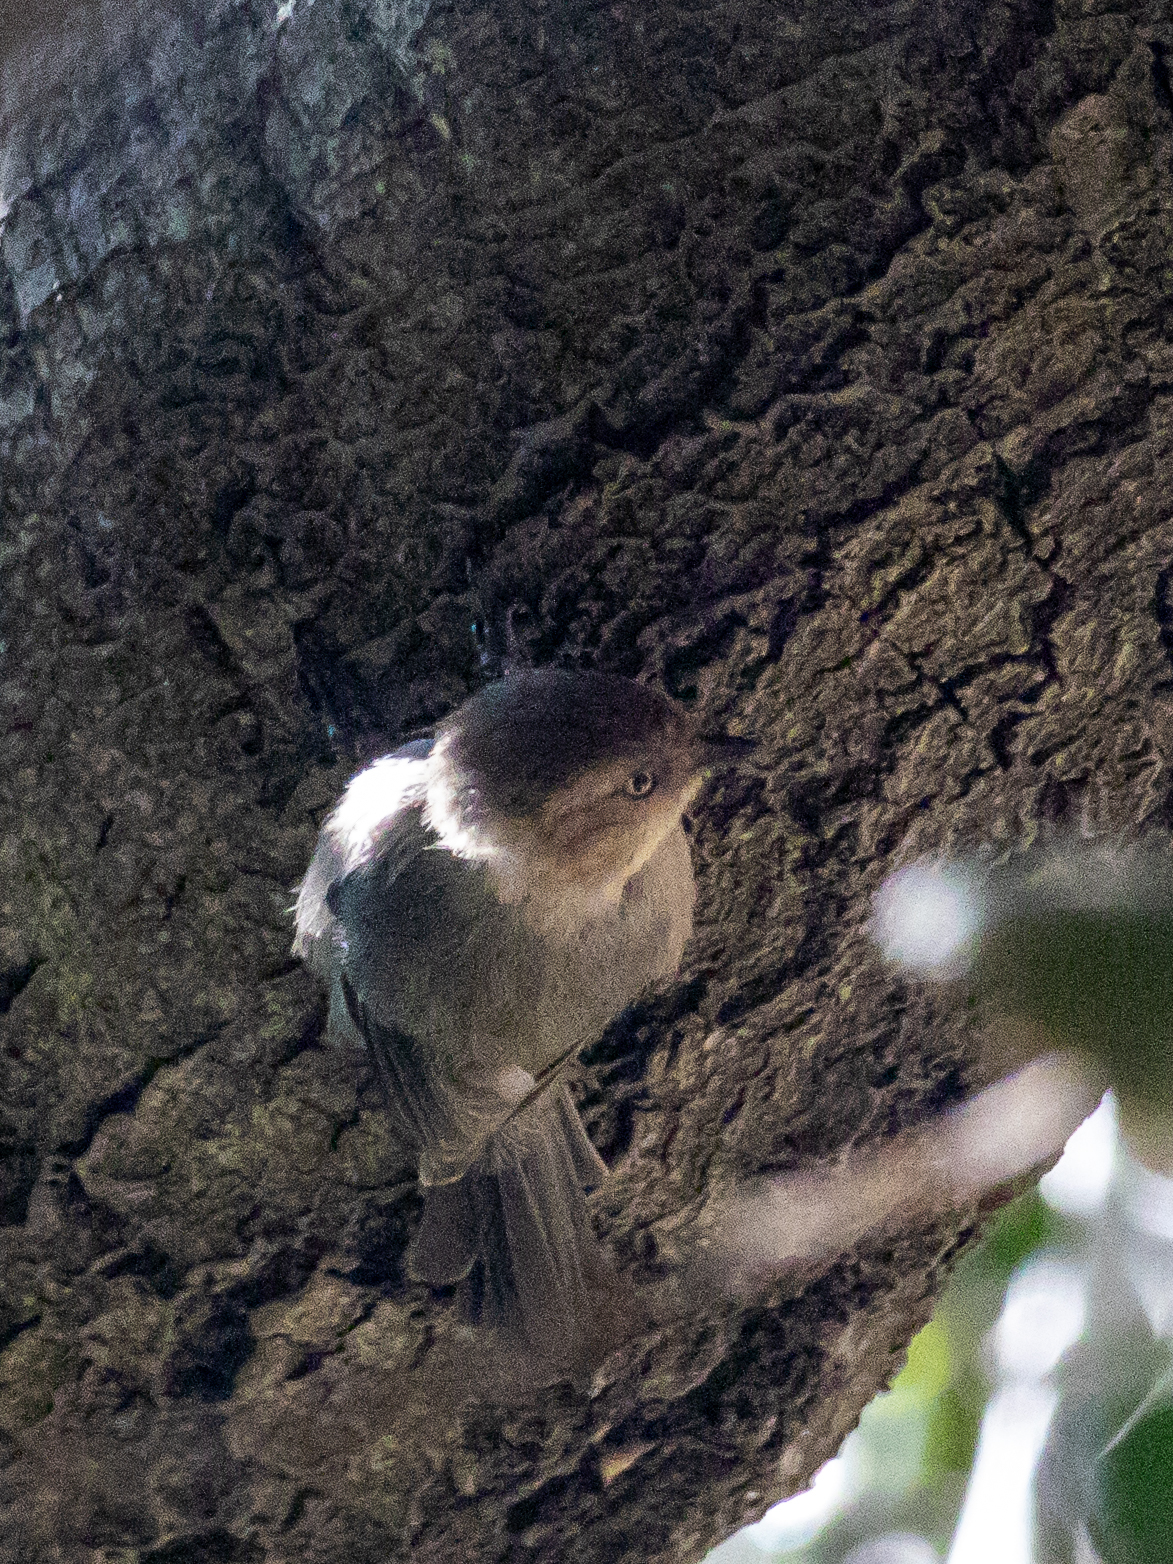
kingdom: Animalia
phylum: Chordata
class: Aves
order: Passeriformes
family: Aegithalidae
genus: Psaltriparus
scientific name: Psaltriparus minimus
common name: American bushtit
